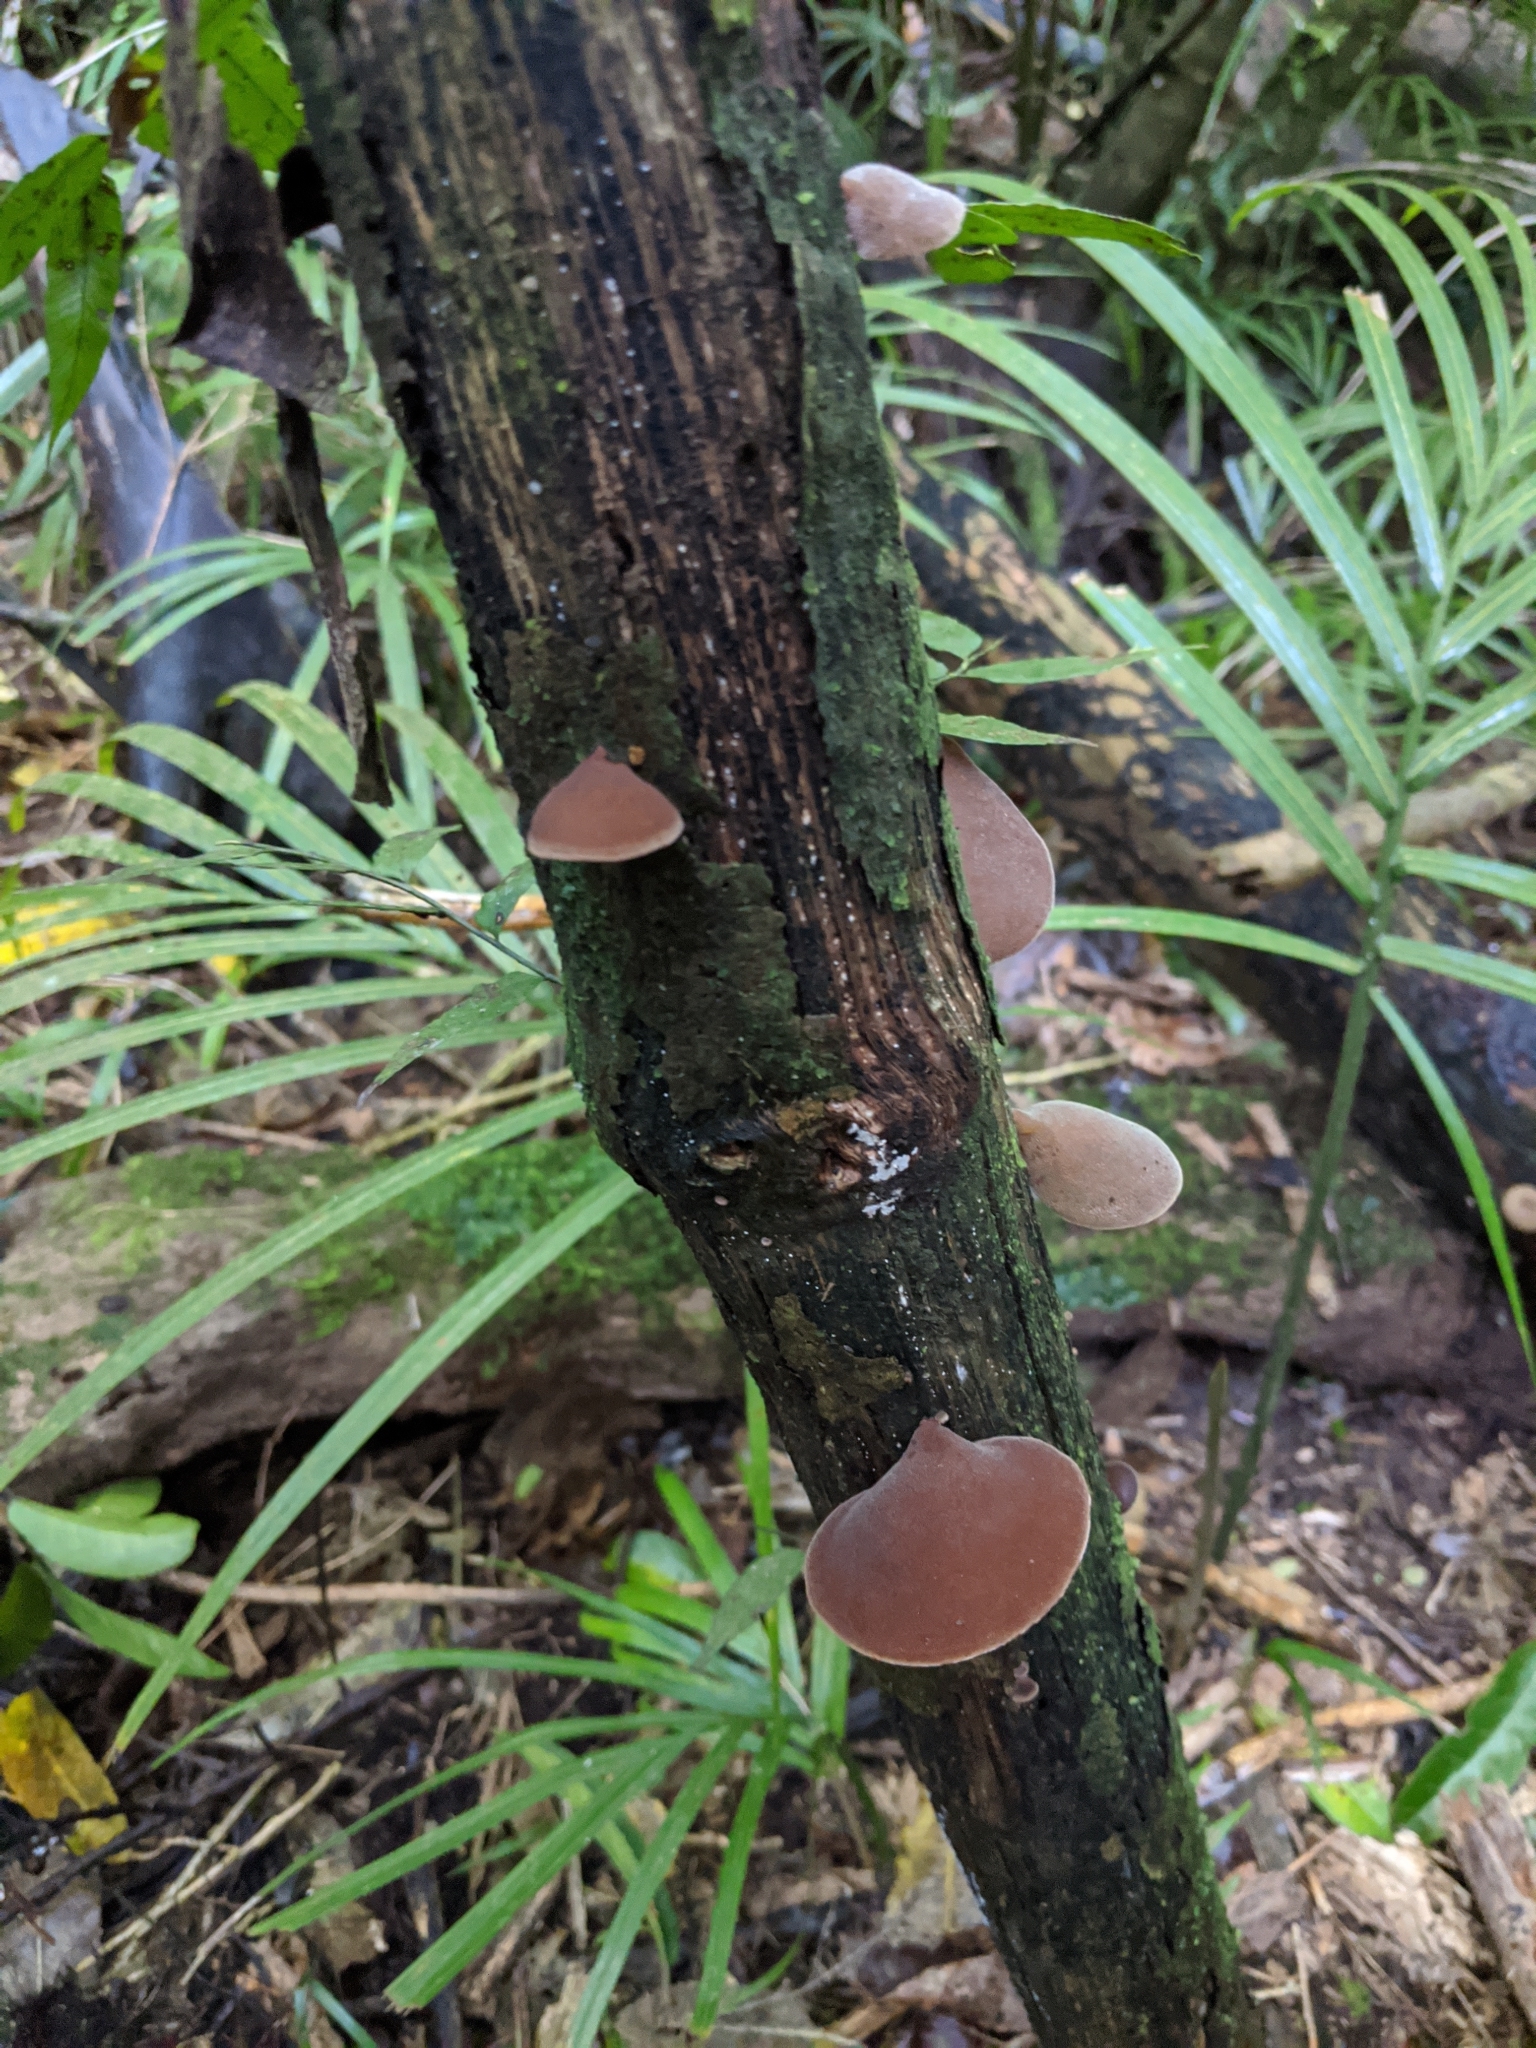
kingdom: Fungi
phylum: Basidiomycota
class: Agaricomycetes
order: Auriculariales
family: Auriculariaceae
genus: Auricularia
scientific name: Auricularia cornea
